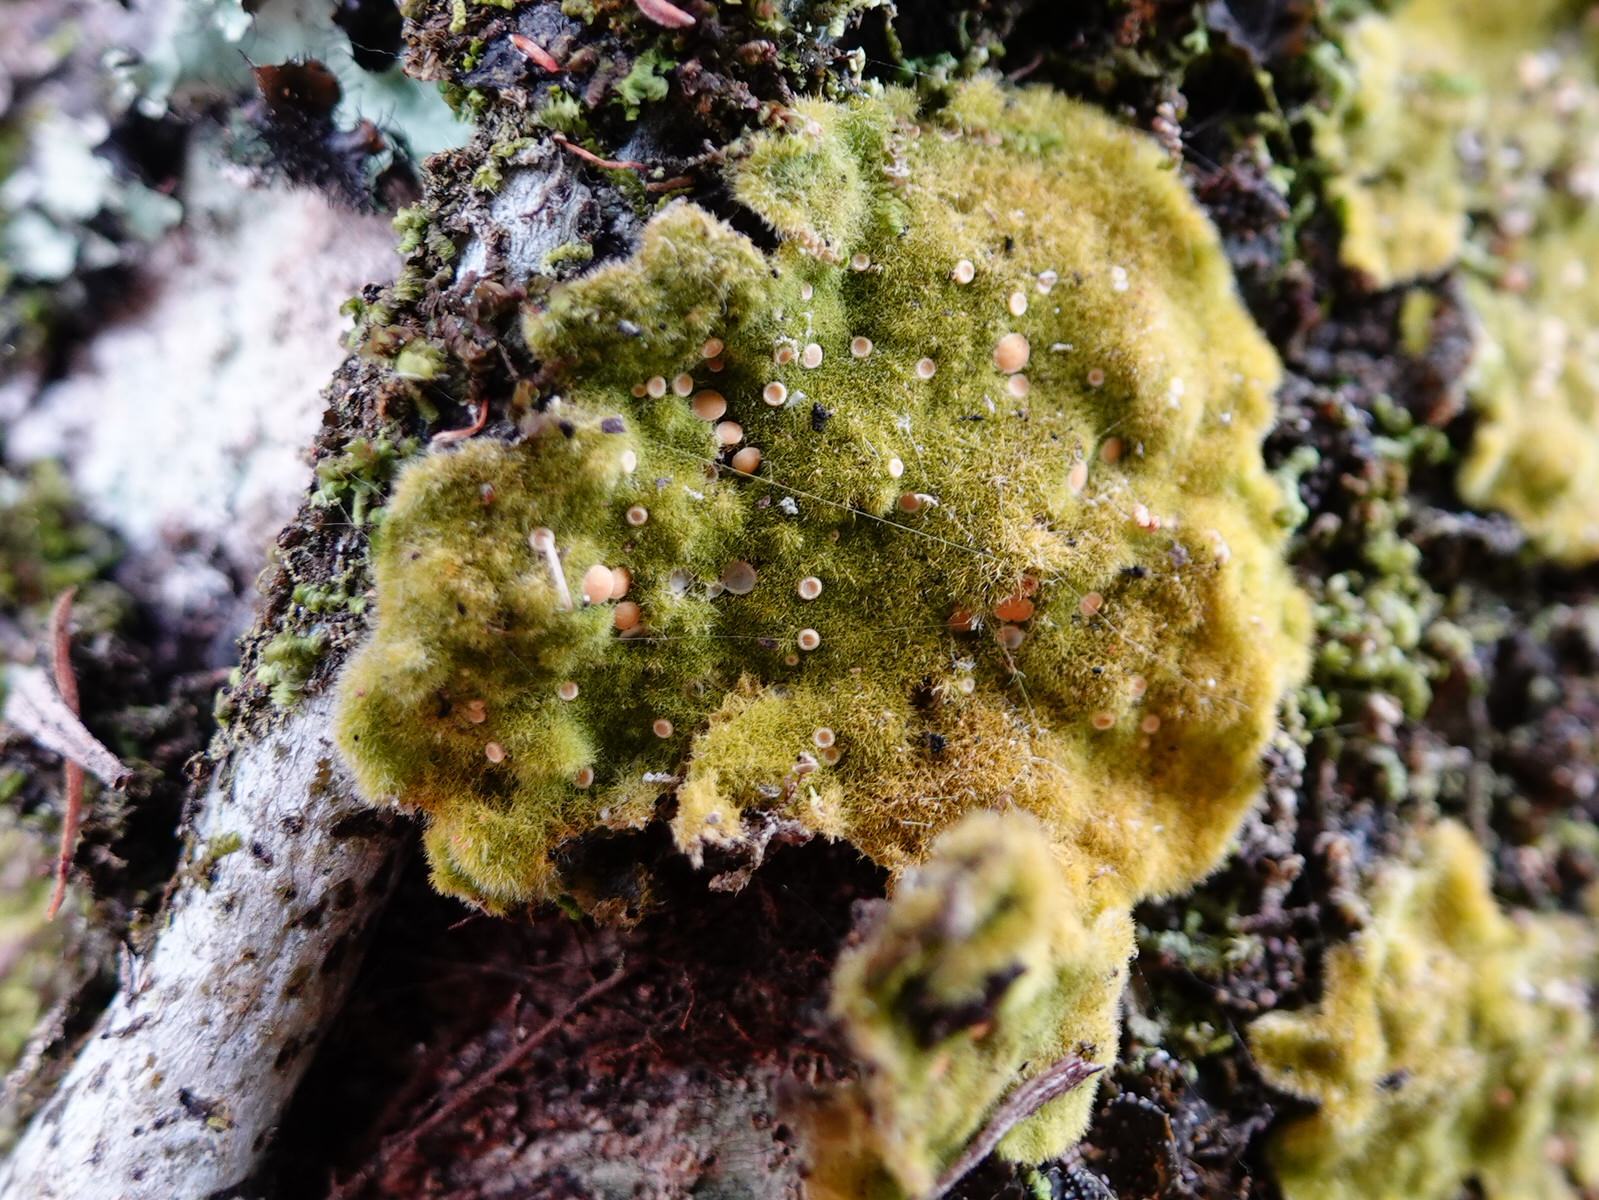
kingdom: Fungi
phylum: Ascomycota
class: Lecanoromycetes
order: Ostropales
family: Coenogoniaceae
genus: Coenogonium
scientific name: Coenogonium implexum
